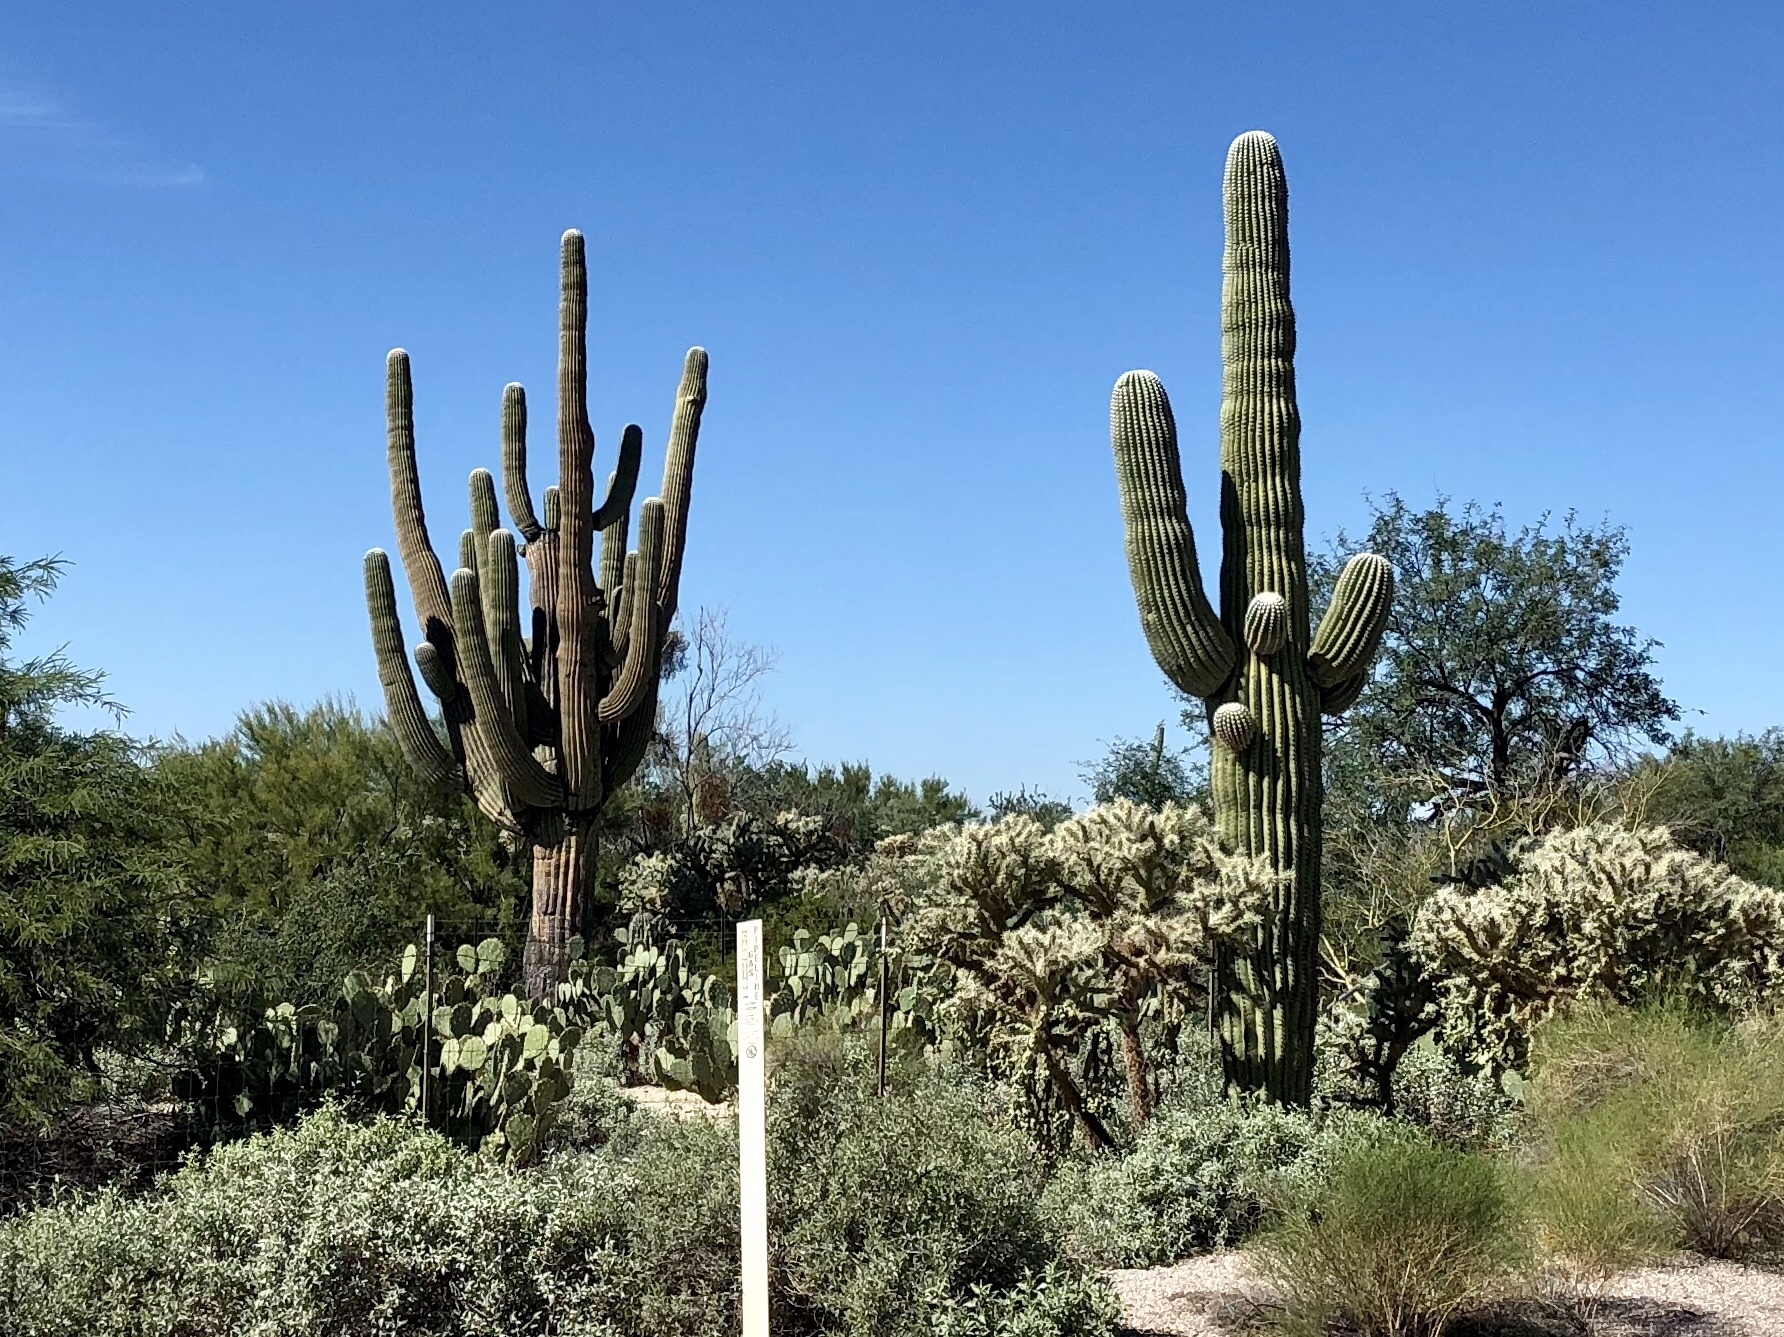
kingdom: Plantae
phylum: Tracheophyta
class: Magnoliopsida
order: Caryophyllales
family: Cactaceae
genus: Carnegiea
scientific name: Carnegiea gigantea
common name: Saguaro
